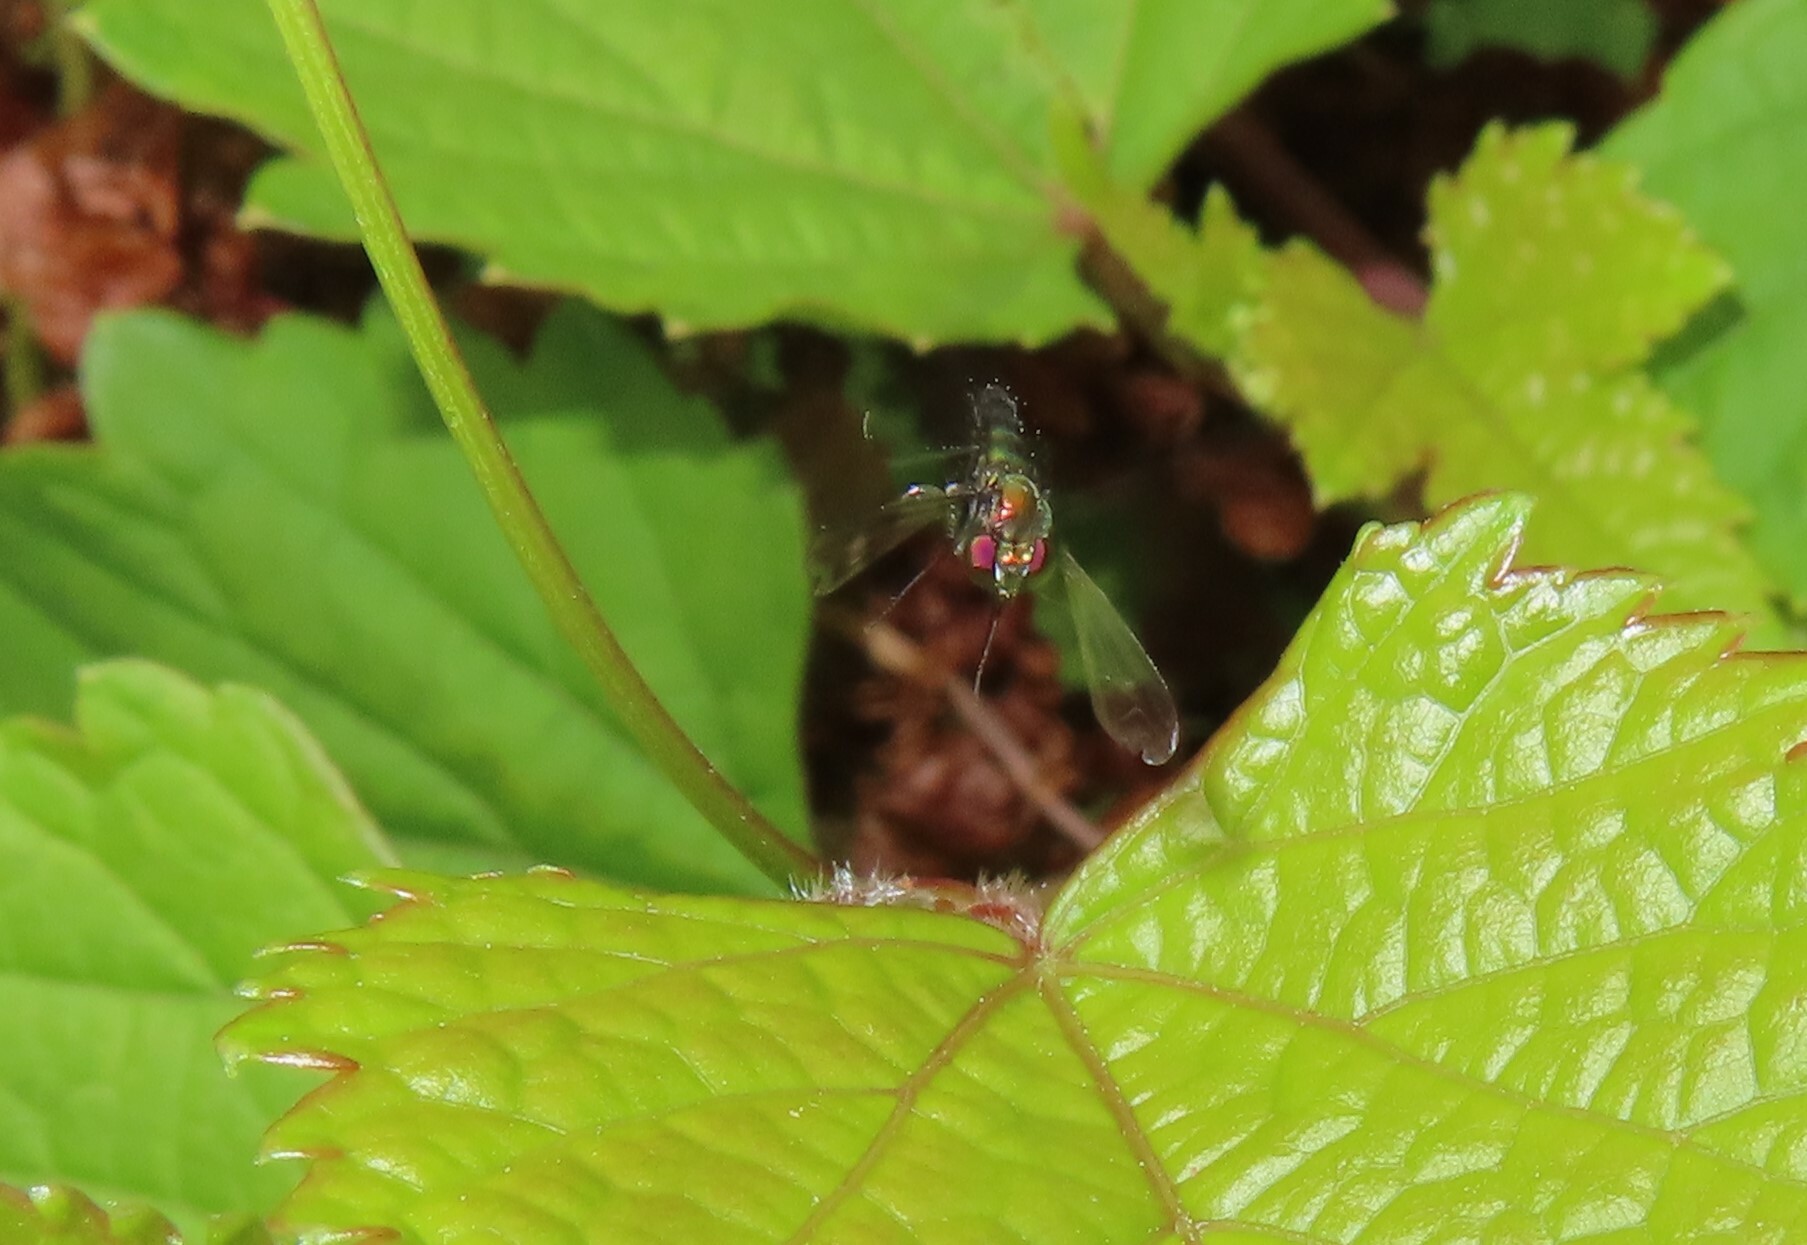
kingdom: Animalia
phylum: Arthropoda
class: Insecta
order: Diptera
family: Dolichopodidae
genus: Condylostylus
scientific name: Condylostylus patibulatus
